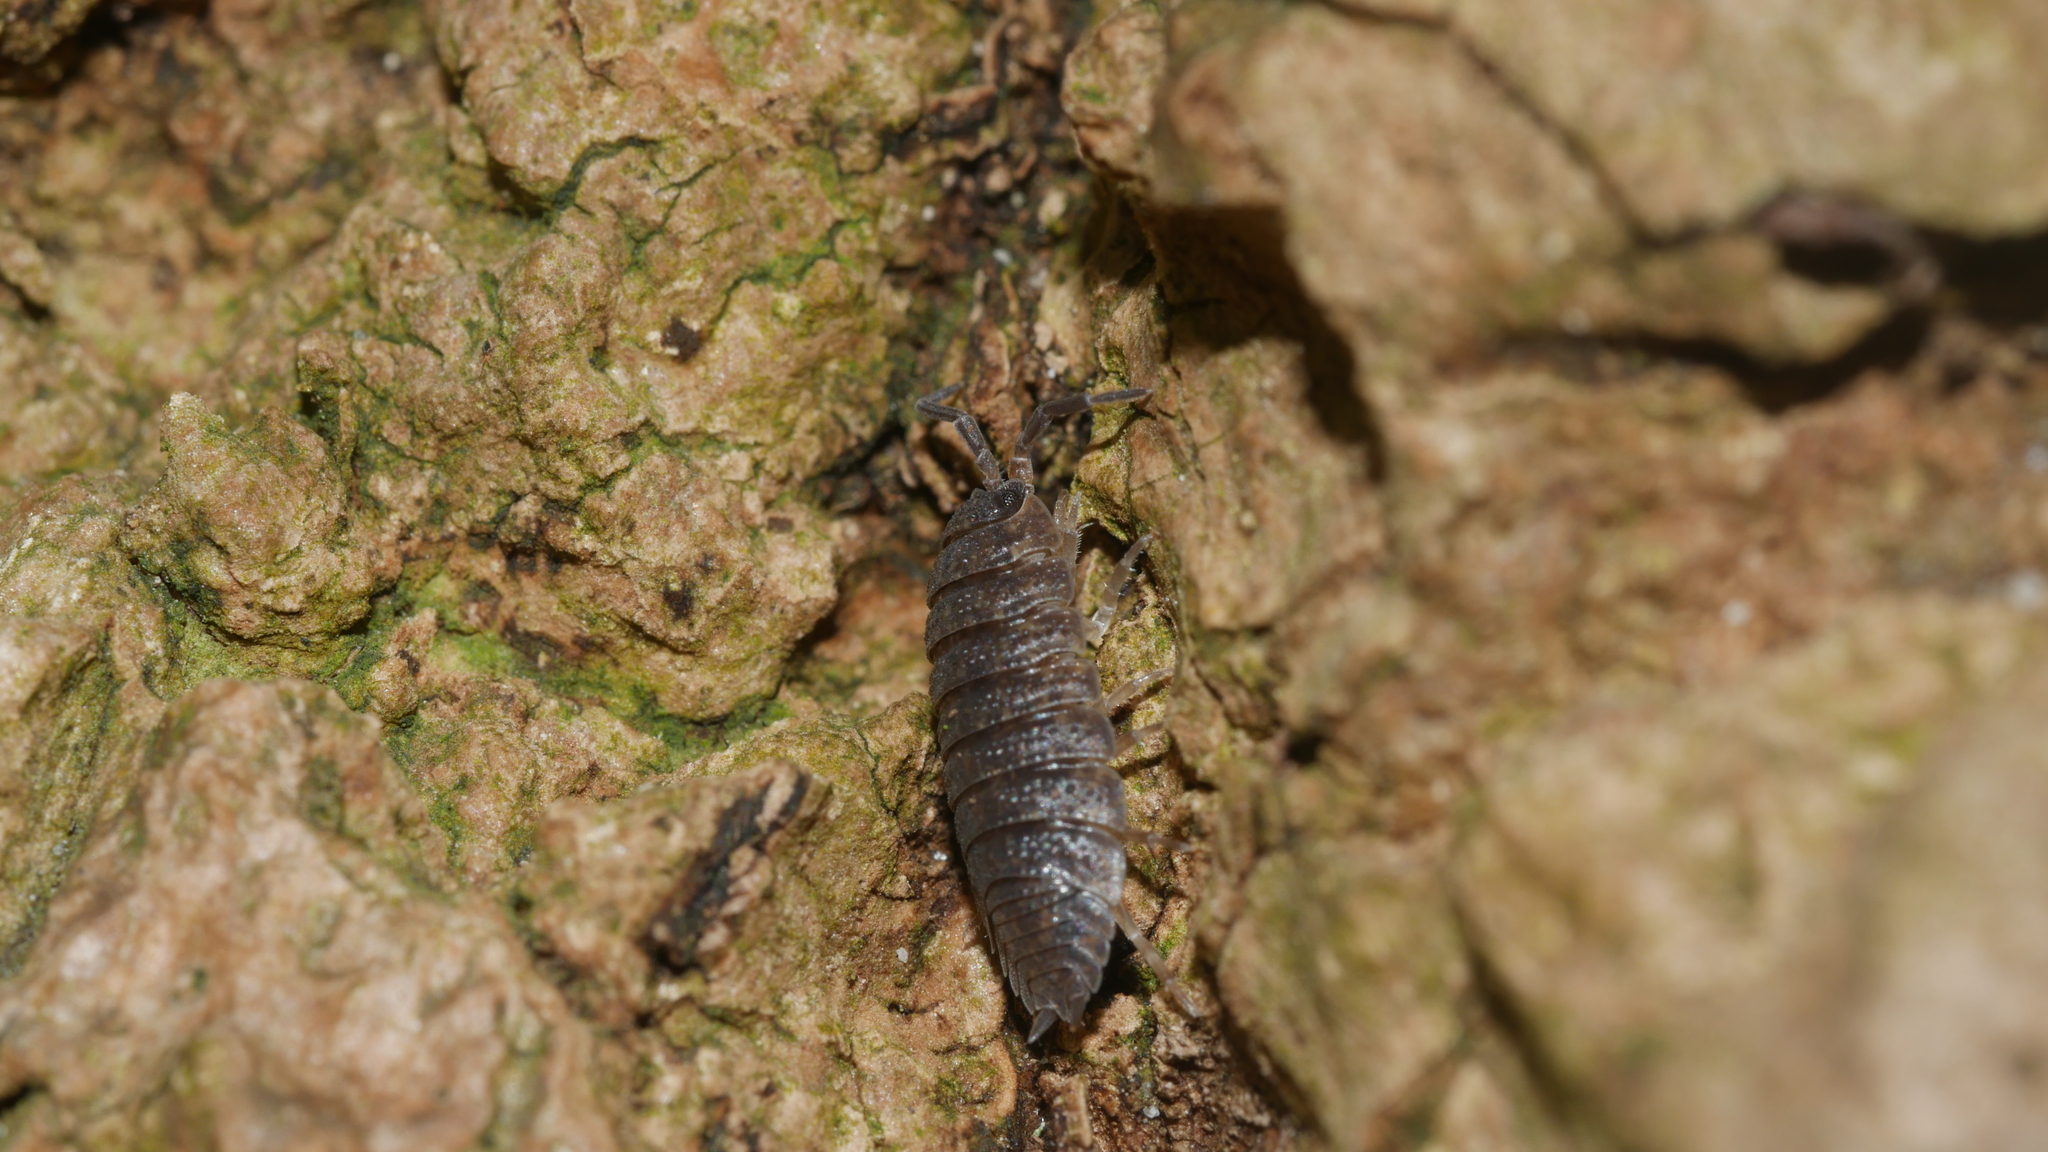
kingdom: Animalia
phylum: Arthropoda
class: Malacostraca
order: Isopoda
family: Porcellionidae
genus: Porcellio
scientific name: Porcellio scaber
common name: Common rough woodlouse
